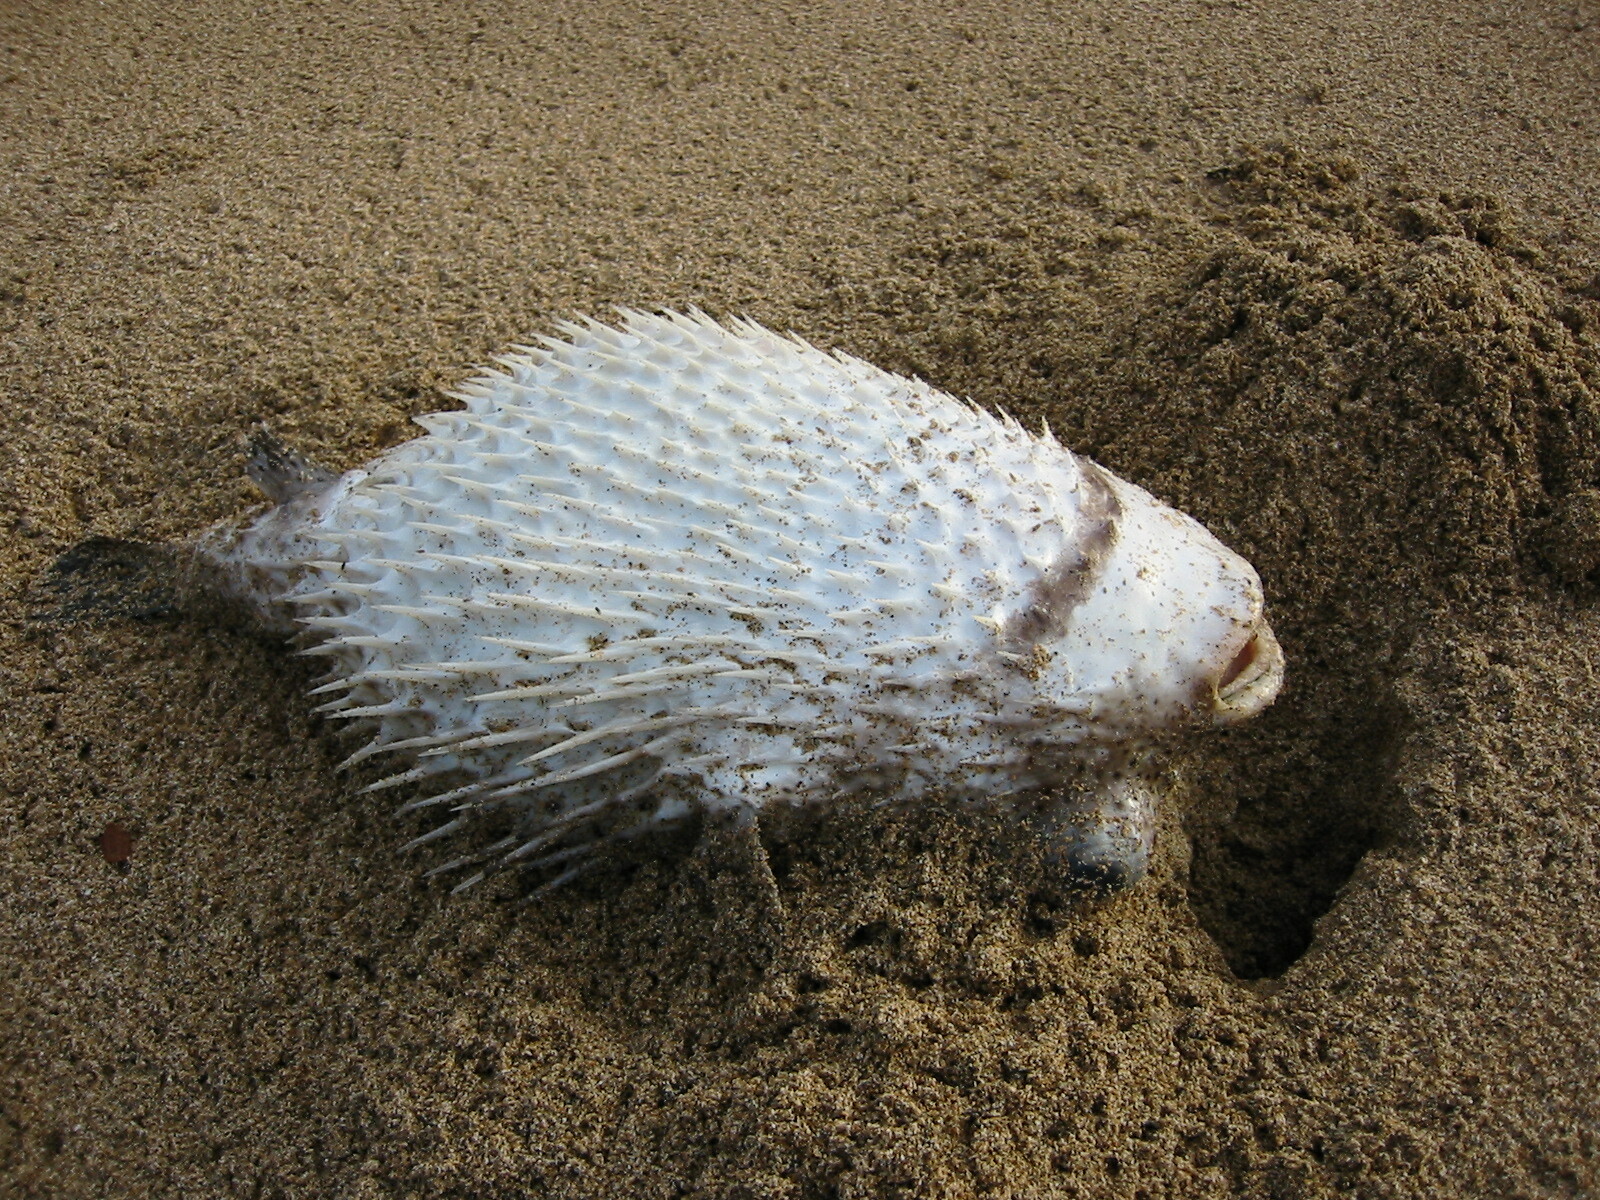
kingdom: Animalia
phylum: Chordata
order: Tetraodontiformes
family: Diodontidae
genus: Diodon
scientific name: Diodon hystrix
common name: Giant porcupinefish
